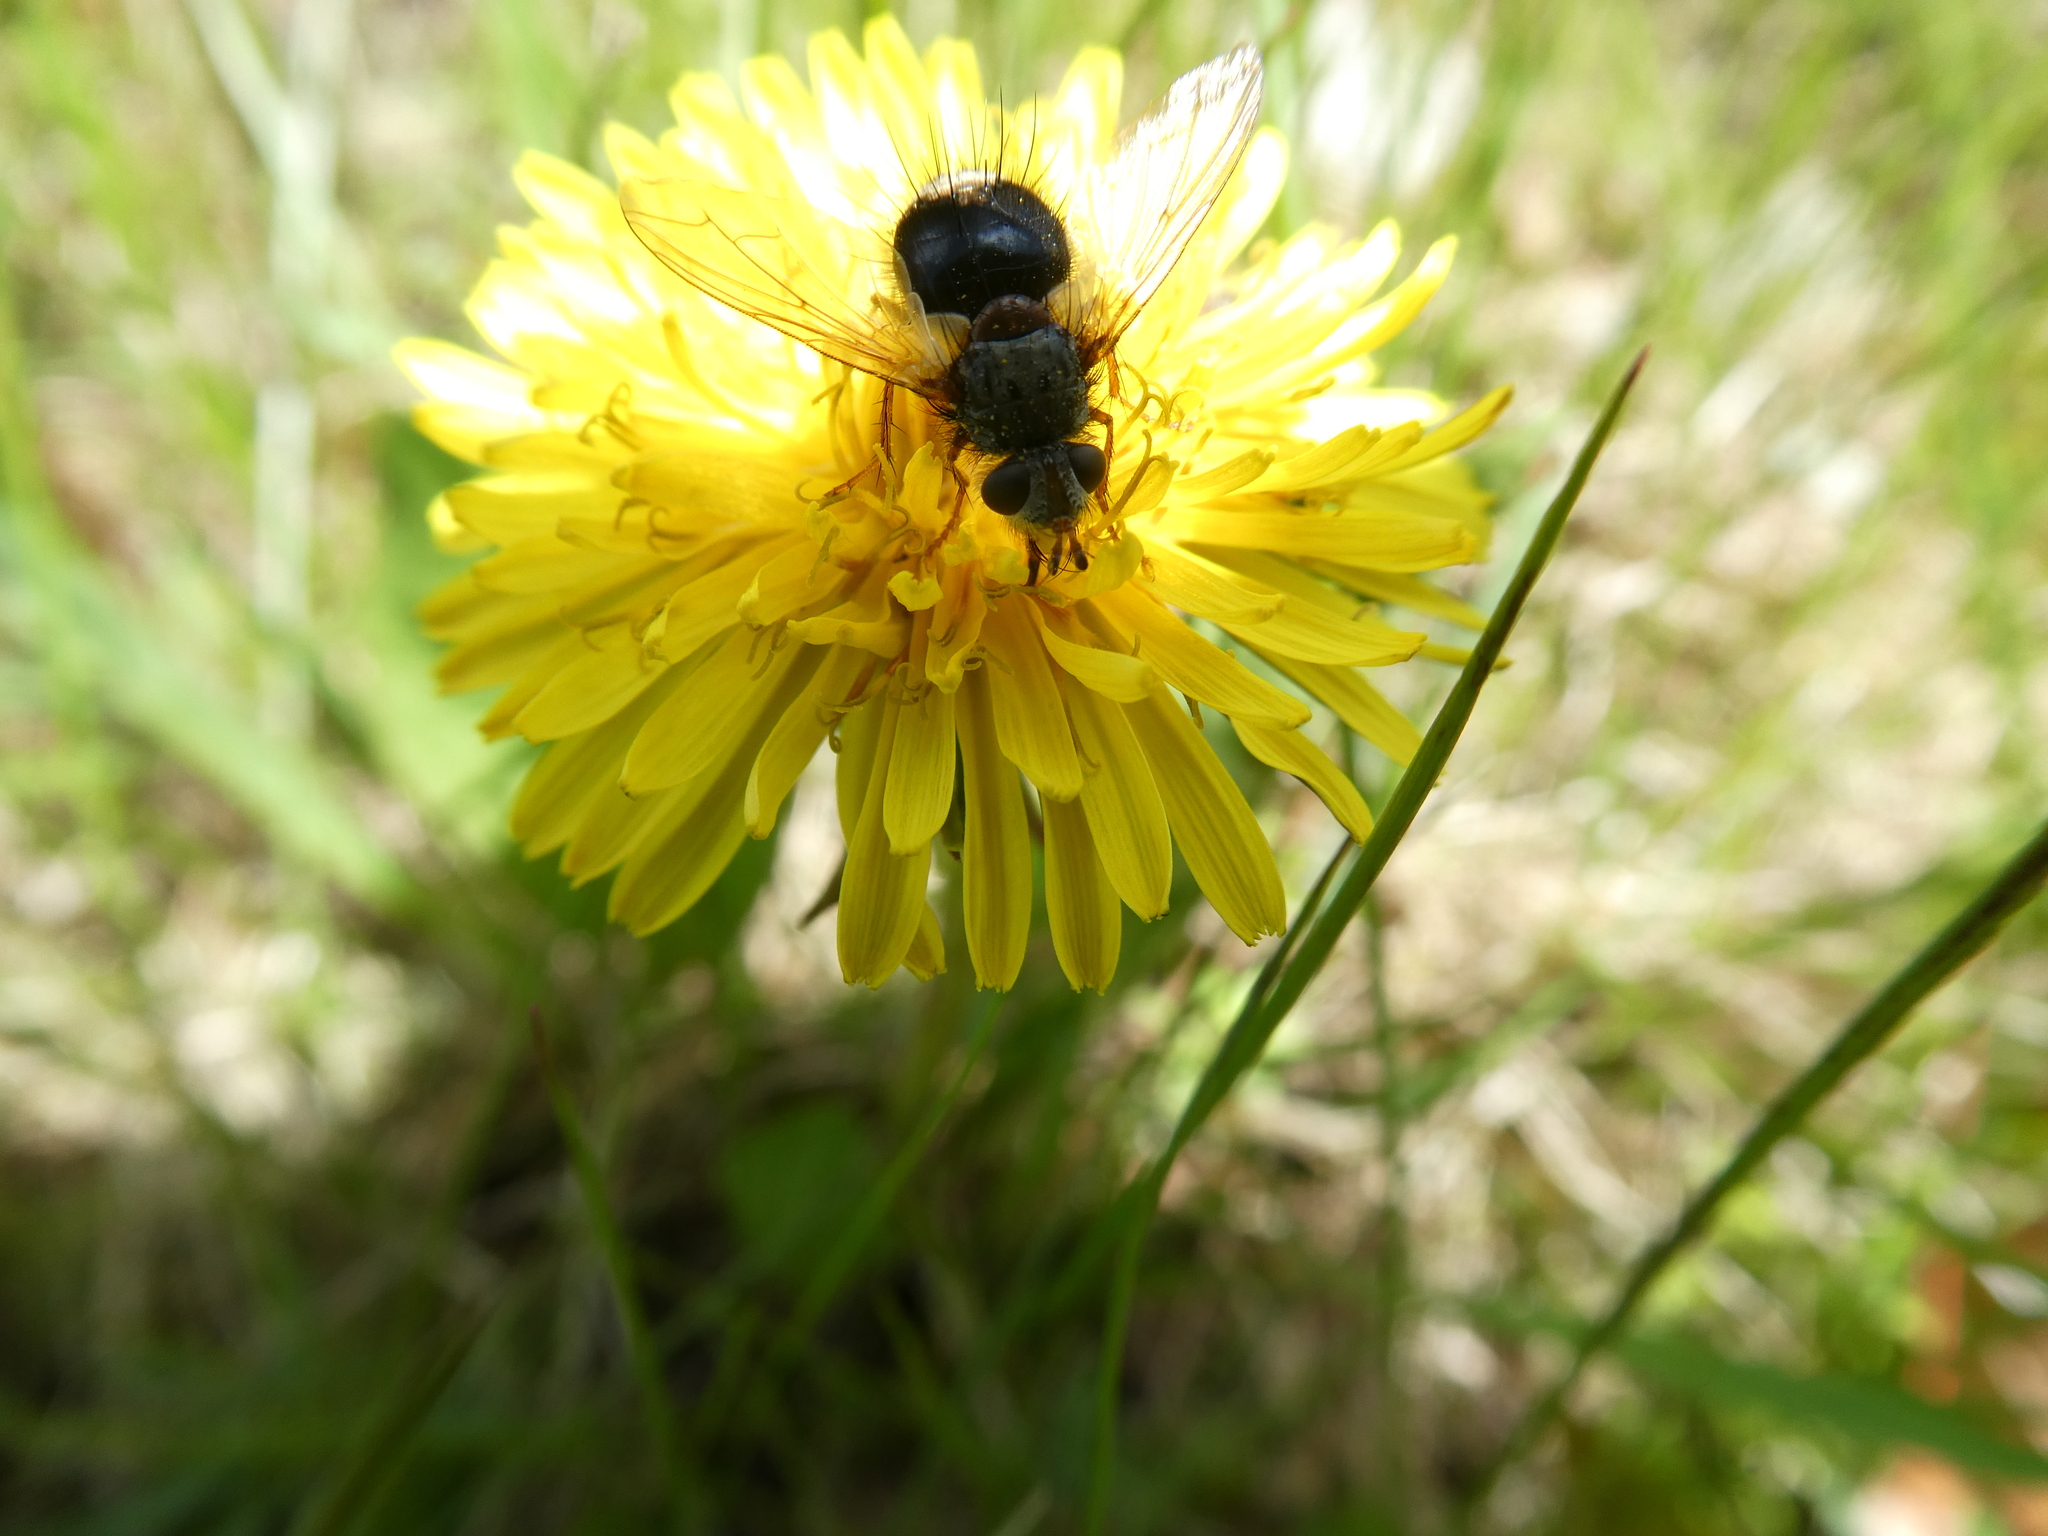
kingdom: Animalia
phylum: Arthropoda
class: Insecta
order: Diptera
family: Tachinidae
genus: Epalpus
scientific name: Epalpus signifer
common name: Early tachinid fly
